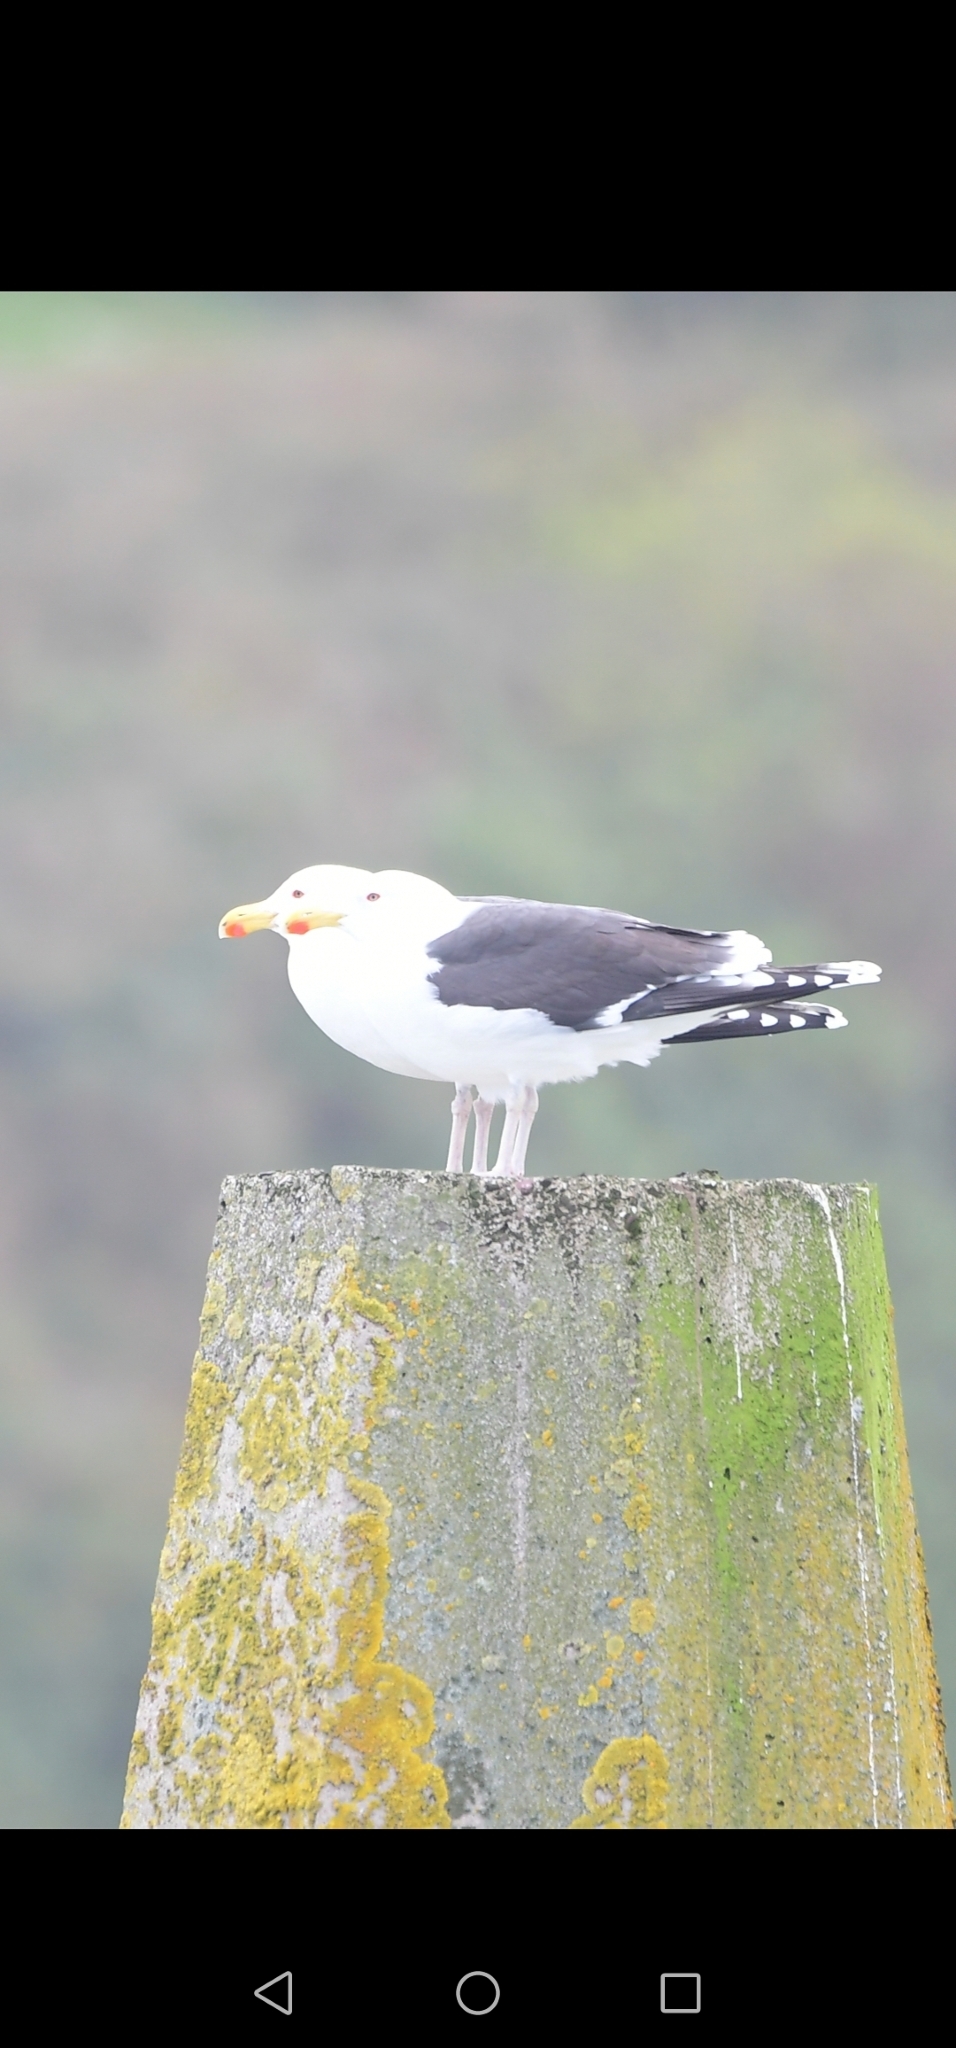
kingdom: Animalia
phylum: Chordata
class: Aves
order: Charadriiformes
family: Laridae
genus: Larus
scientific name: Larus marinus
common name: Great black-backed gull
